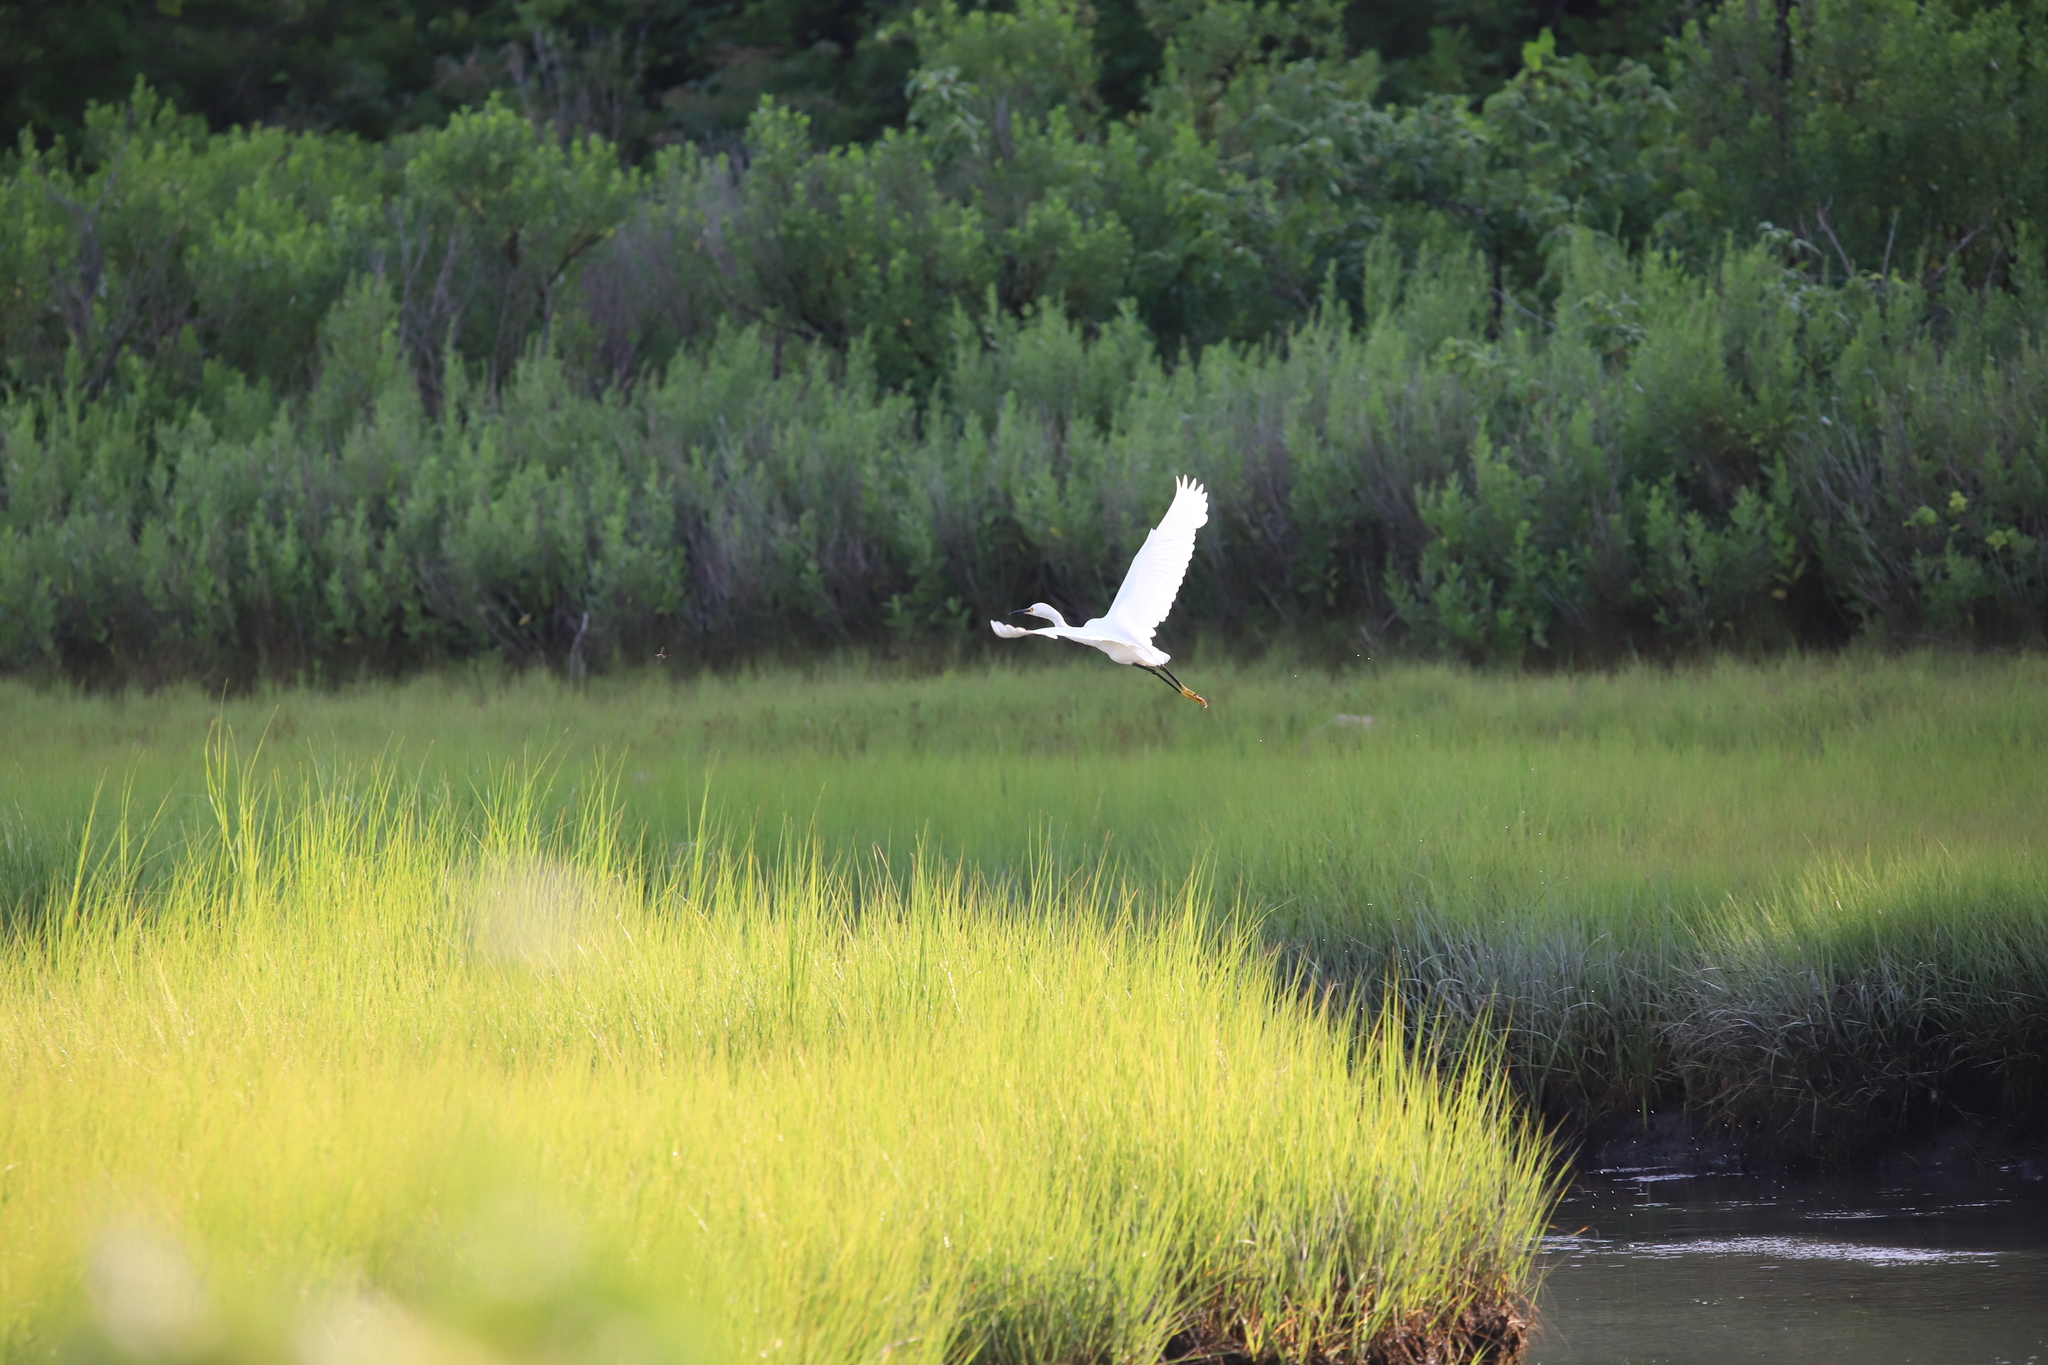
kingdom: Animalia
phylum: Chordata
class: Aves
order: Pelecaniformes
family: Ardeidae
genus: Egretta
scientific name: Egretta thula
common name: Snowy egret
